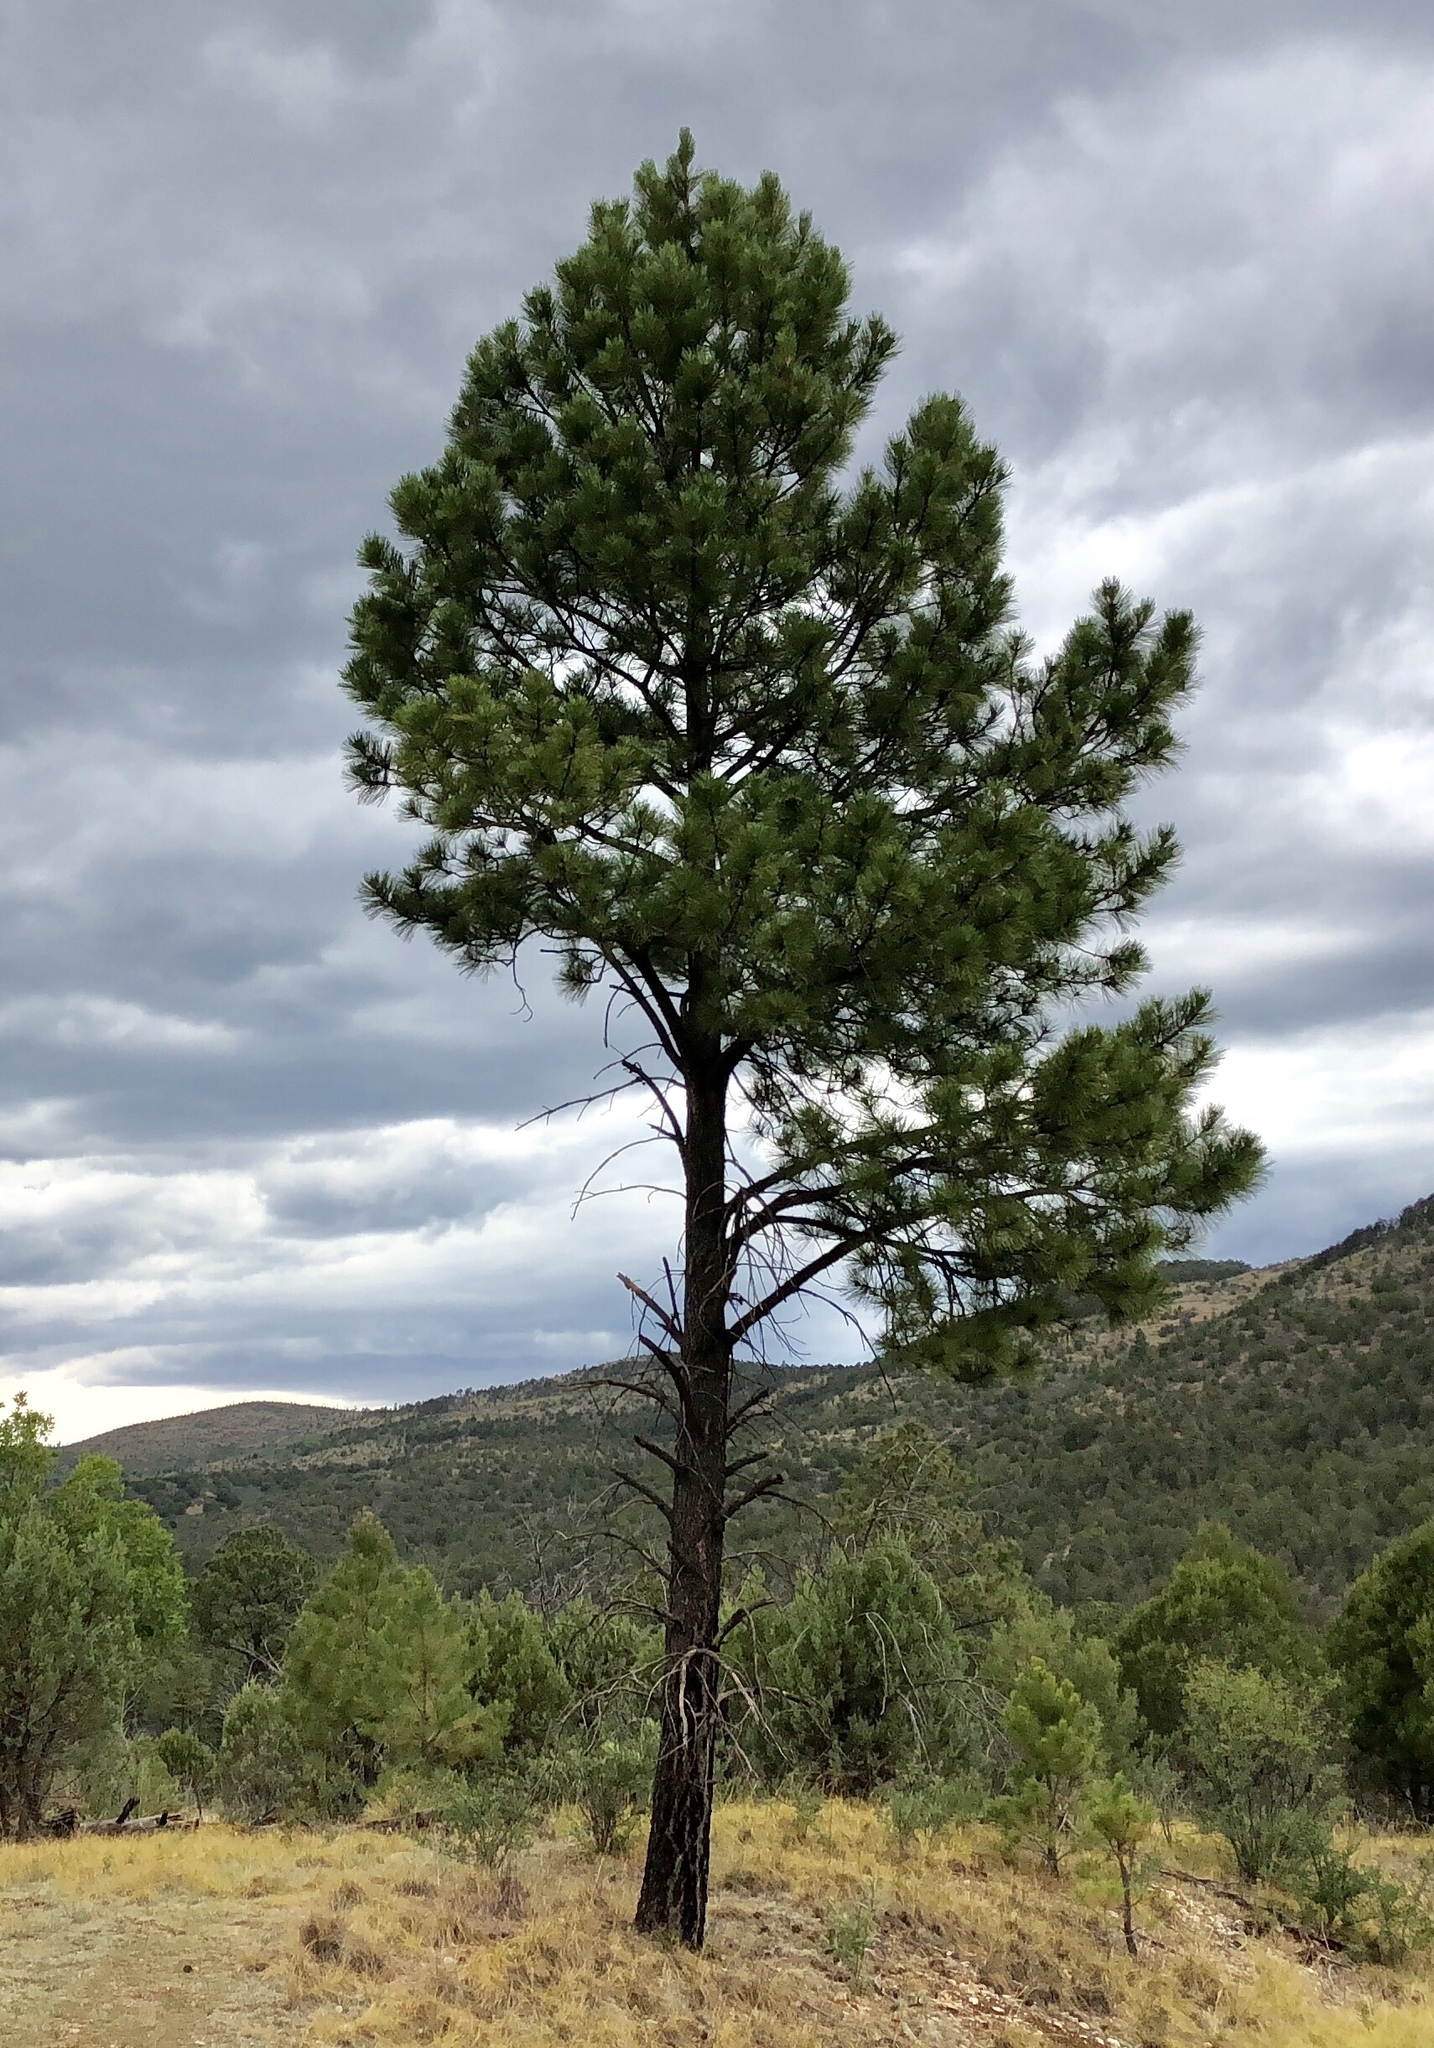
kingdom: Plantae
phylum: Tracheophyta
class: Pinopsida
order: Pinales
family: Pinaceae
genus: Pinus
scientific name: Pinus ponderosa
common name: Western yellow-pine
